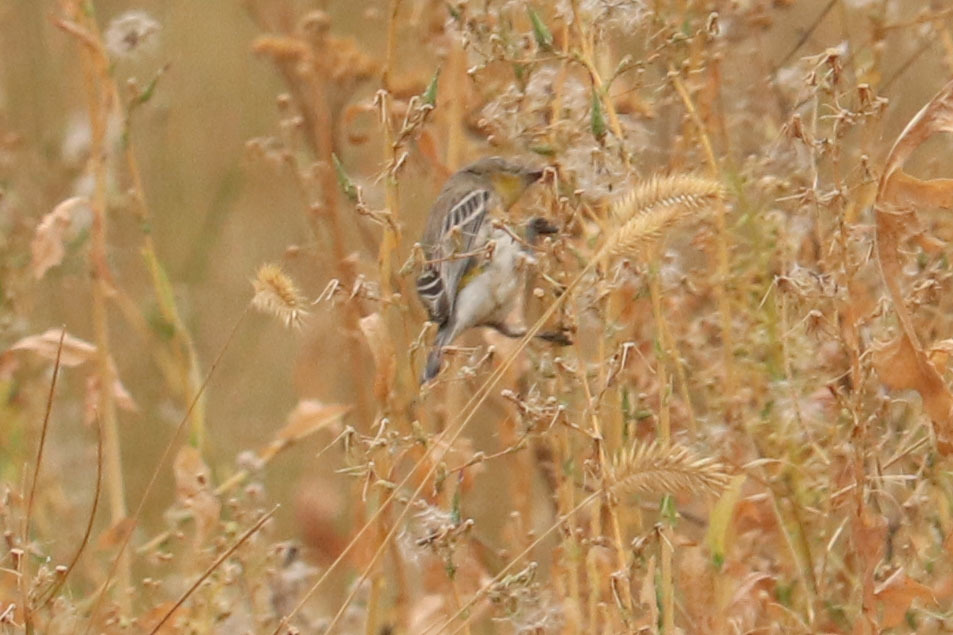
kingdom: Animalia
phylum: Chordata
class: Aves
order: Passeriformes
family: Parulidae
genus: Setophaga
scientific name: Setophaga coronata
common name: Myrtle warbler
